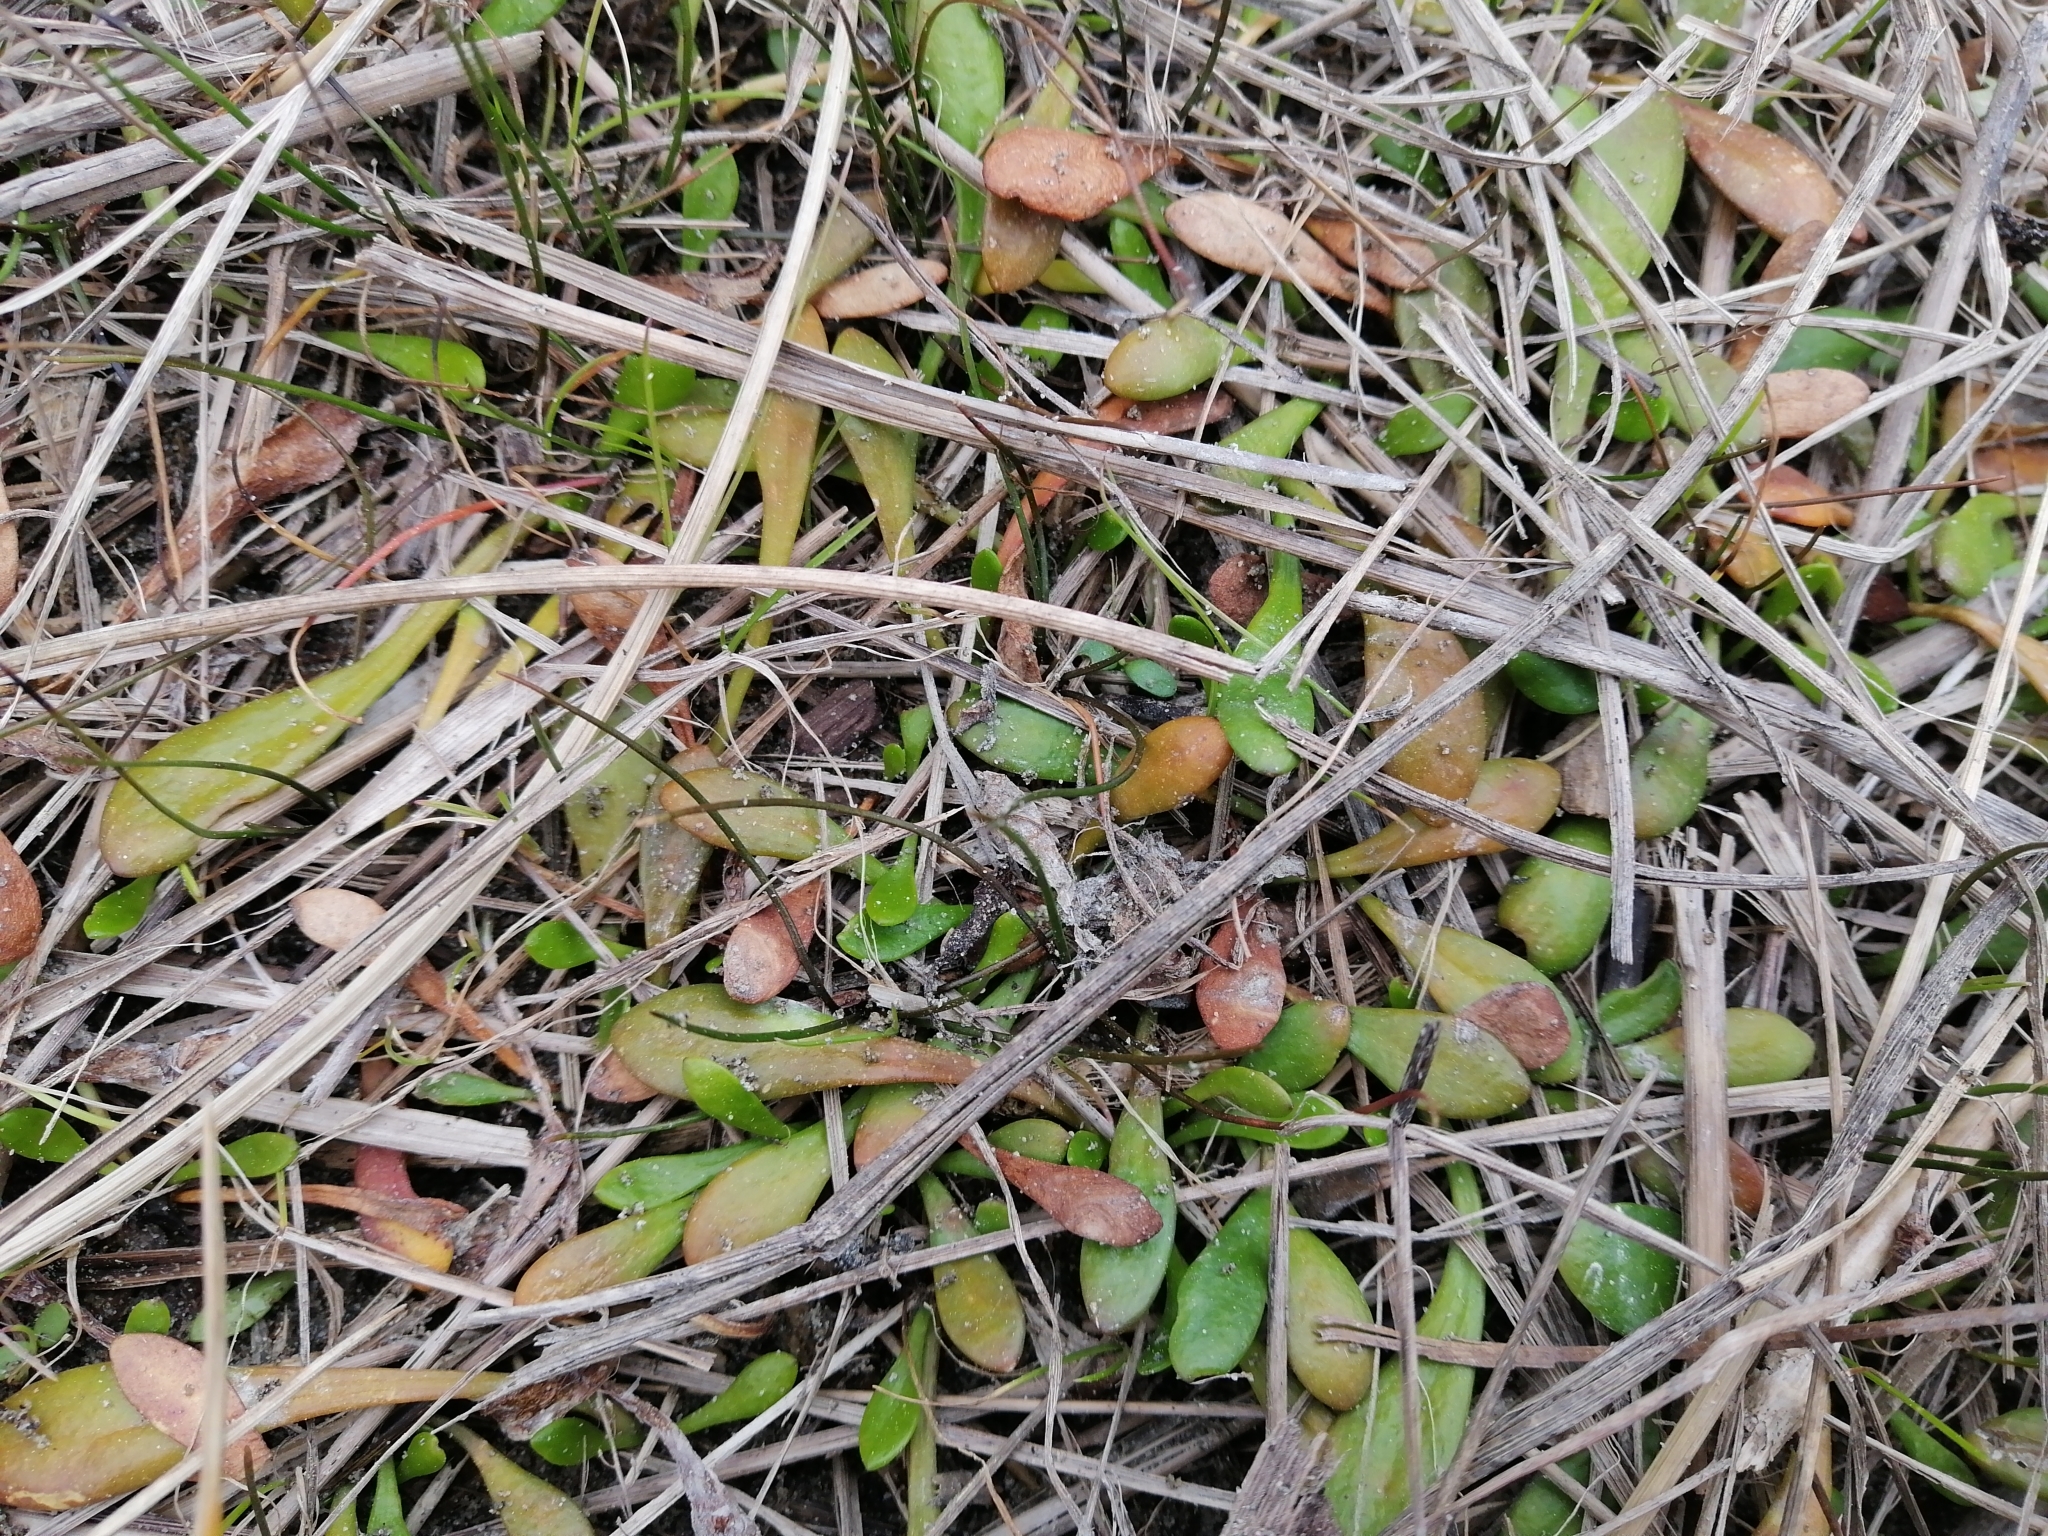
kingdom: Plantae
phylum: Tracheophyta
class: Magnoliopsida
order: Asterales
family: Goodeniaceae
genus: Goodenia
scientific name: Goodenia radicans
